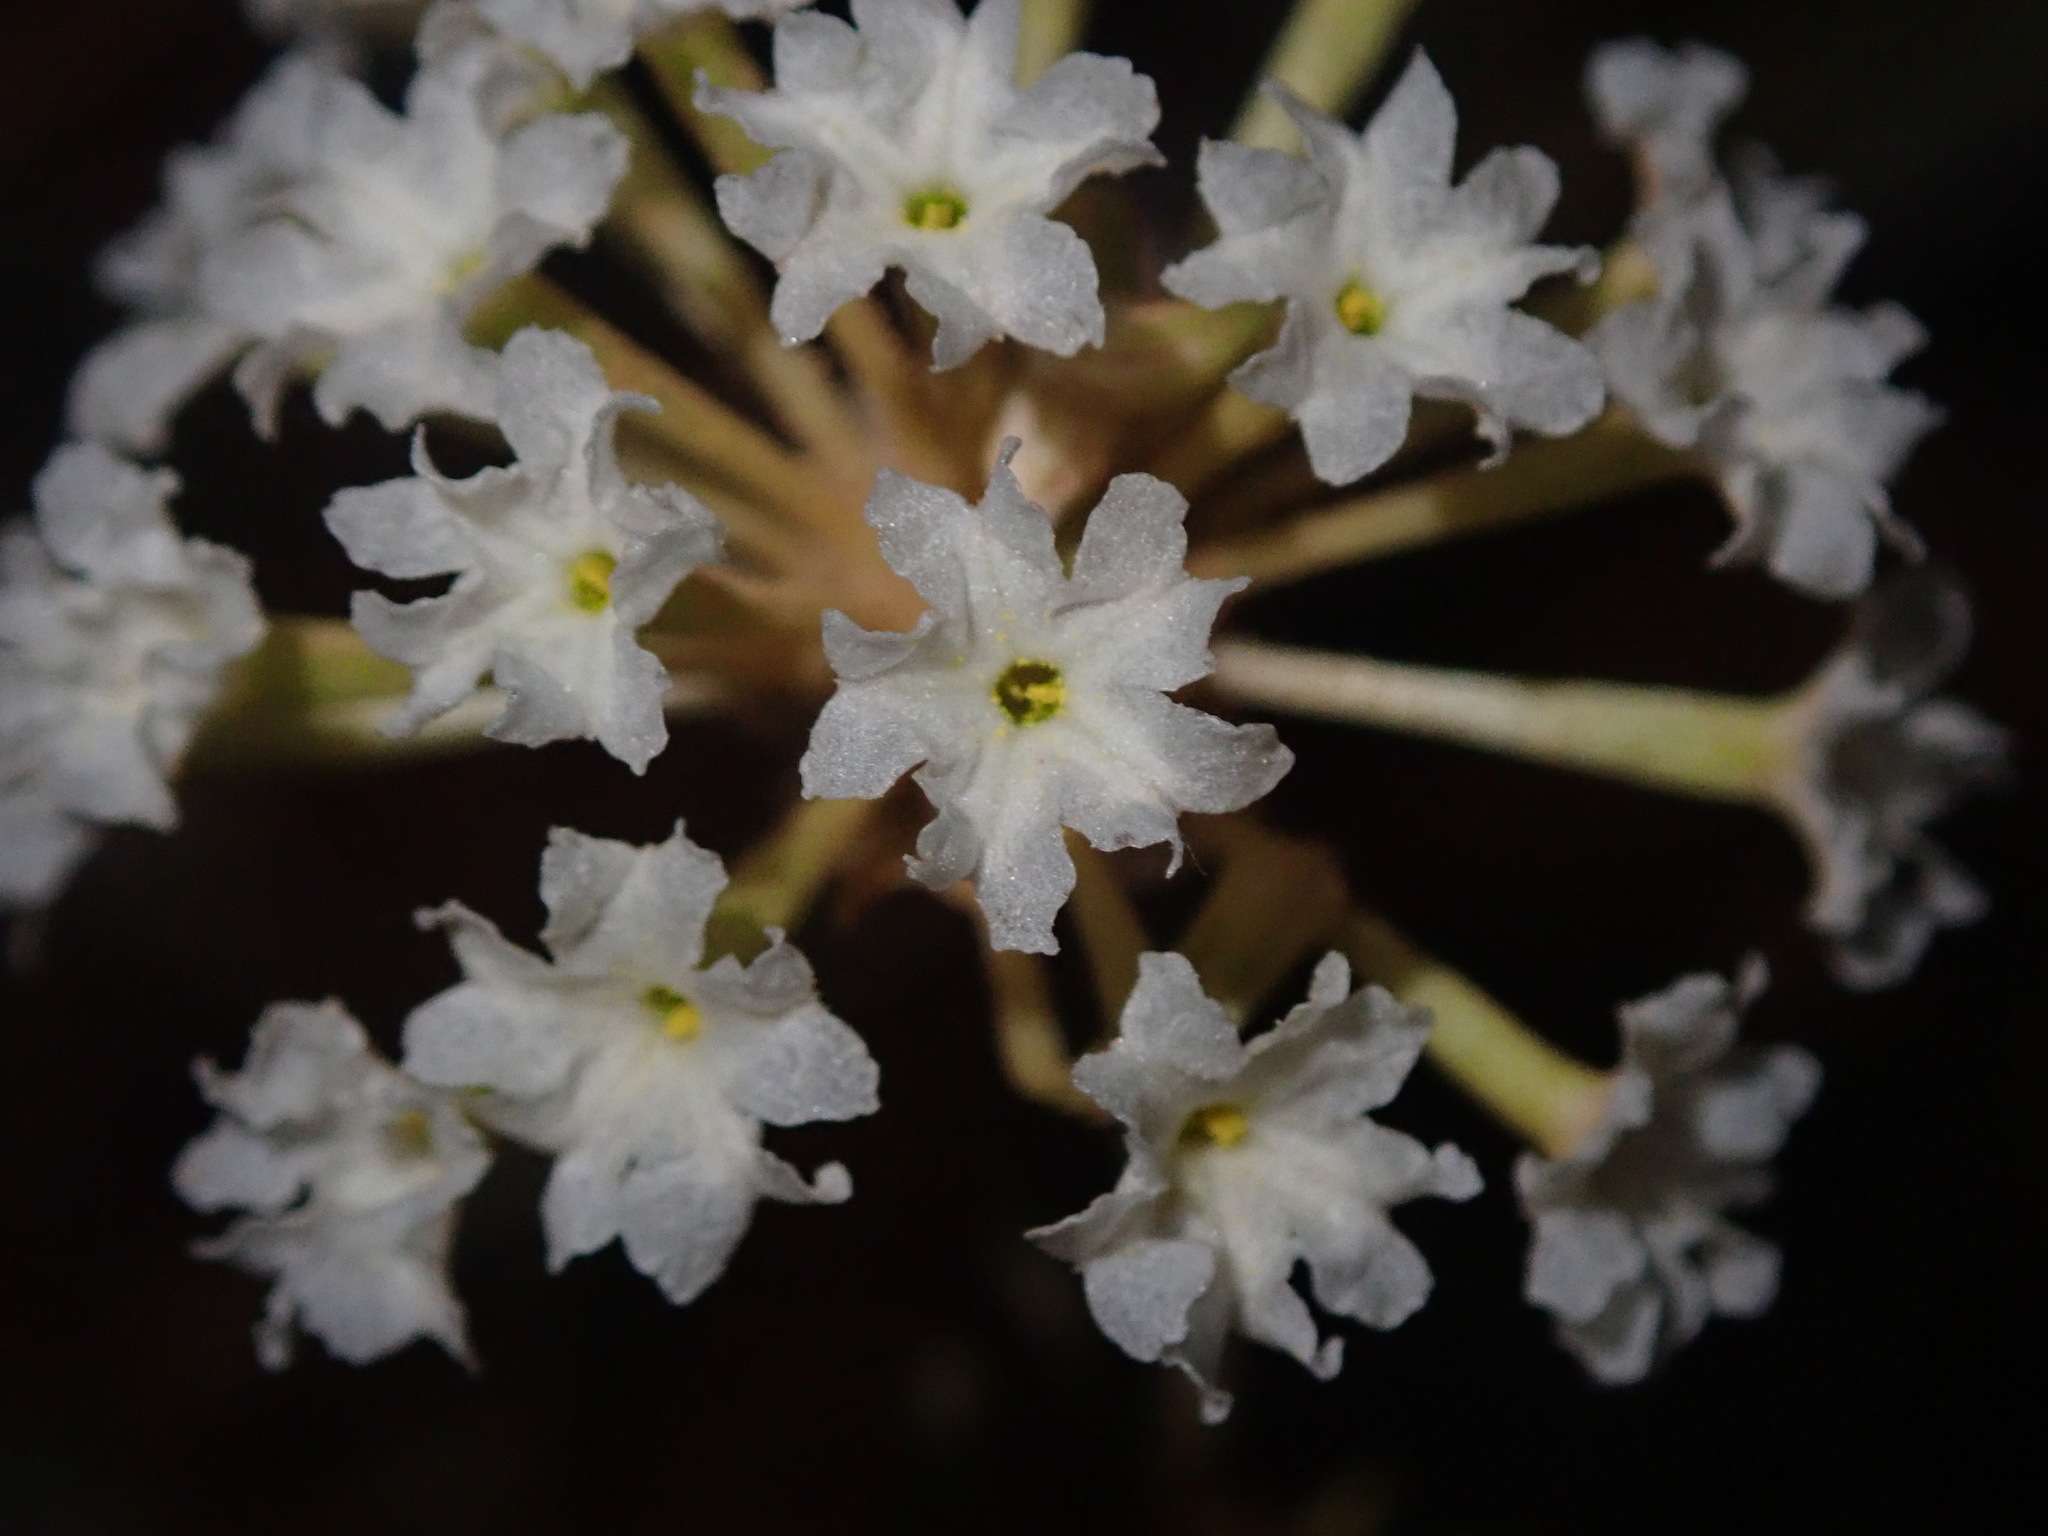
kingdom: Plantae
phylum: Tracheophyta
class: Magnoliopsida
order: Caryophyllales
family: Nyctaginaceae
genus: Abronia
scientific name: Abronia elliptica
